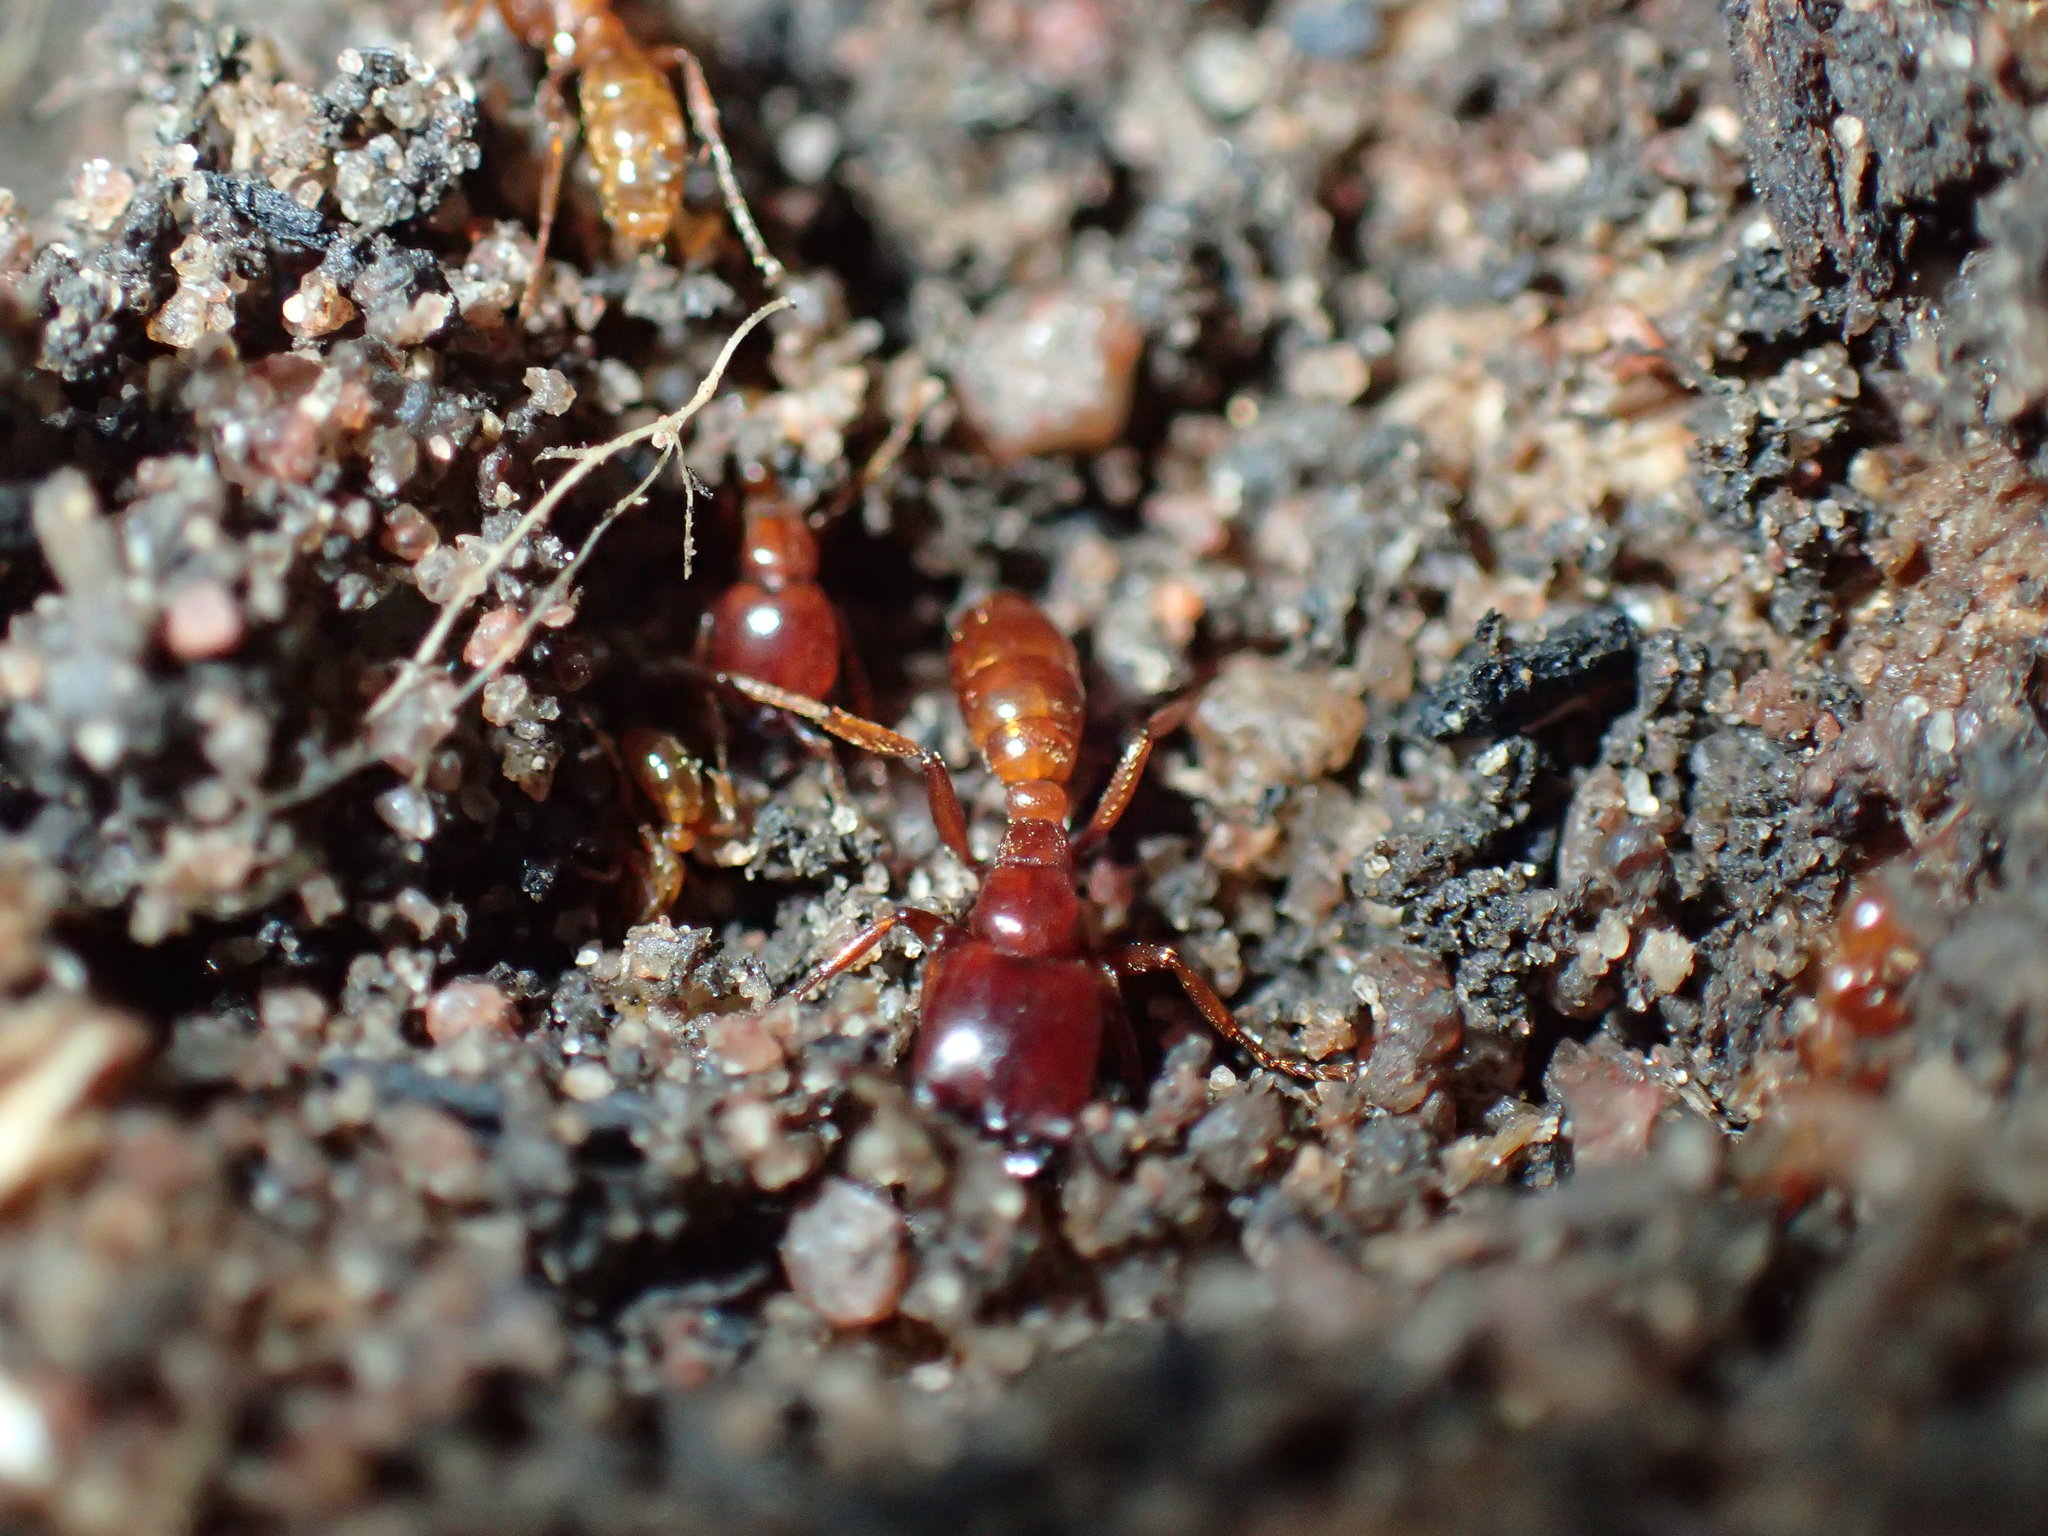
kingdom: Animalia
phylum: Arthropoda
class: Insecta
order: Hymenoptera
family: Formicidae
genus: Dorylus
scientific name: Dorylus helvolus
